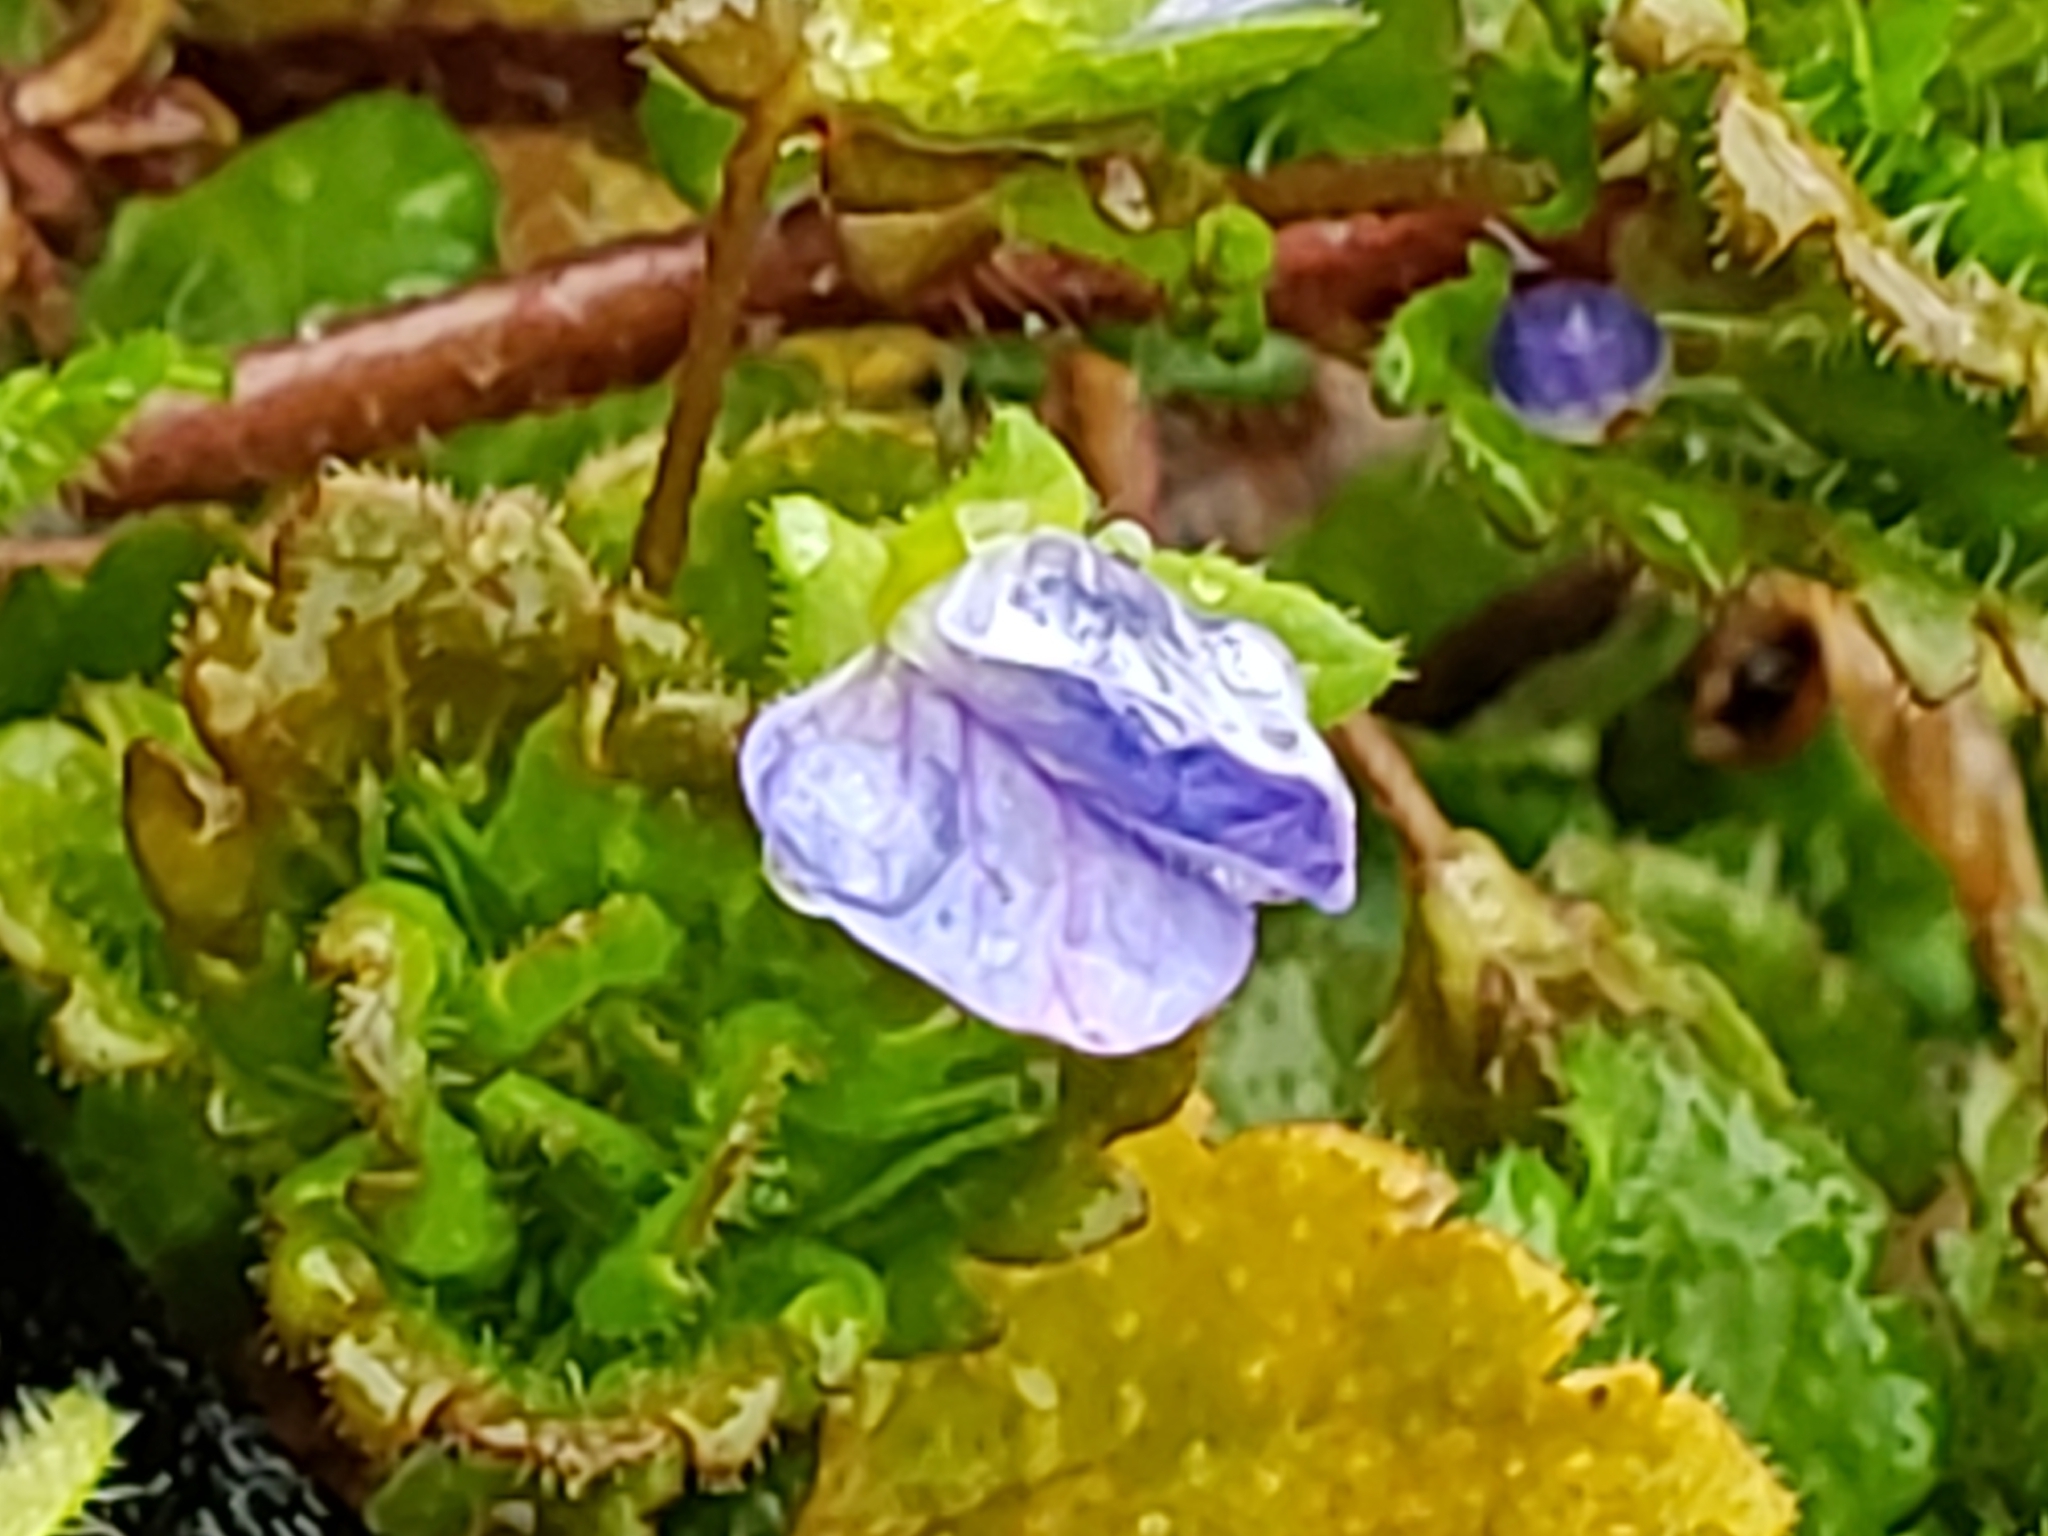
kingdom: Plantae
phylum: Tracheophyta
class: Magnoliopsida
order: Lamiales
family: Plantaginaceae
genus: Veronica
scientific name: Veronica persica
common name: Common field-speedwell
